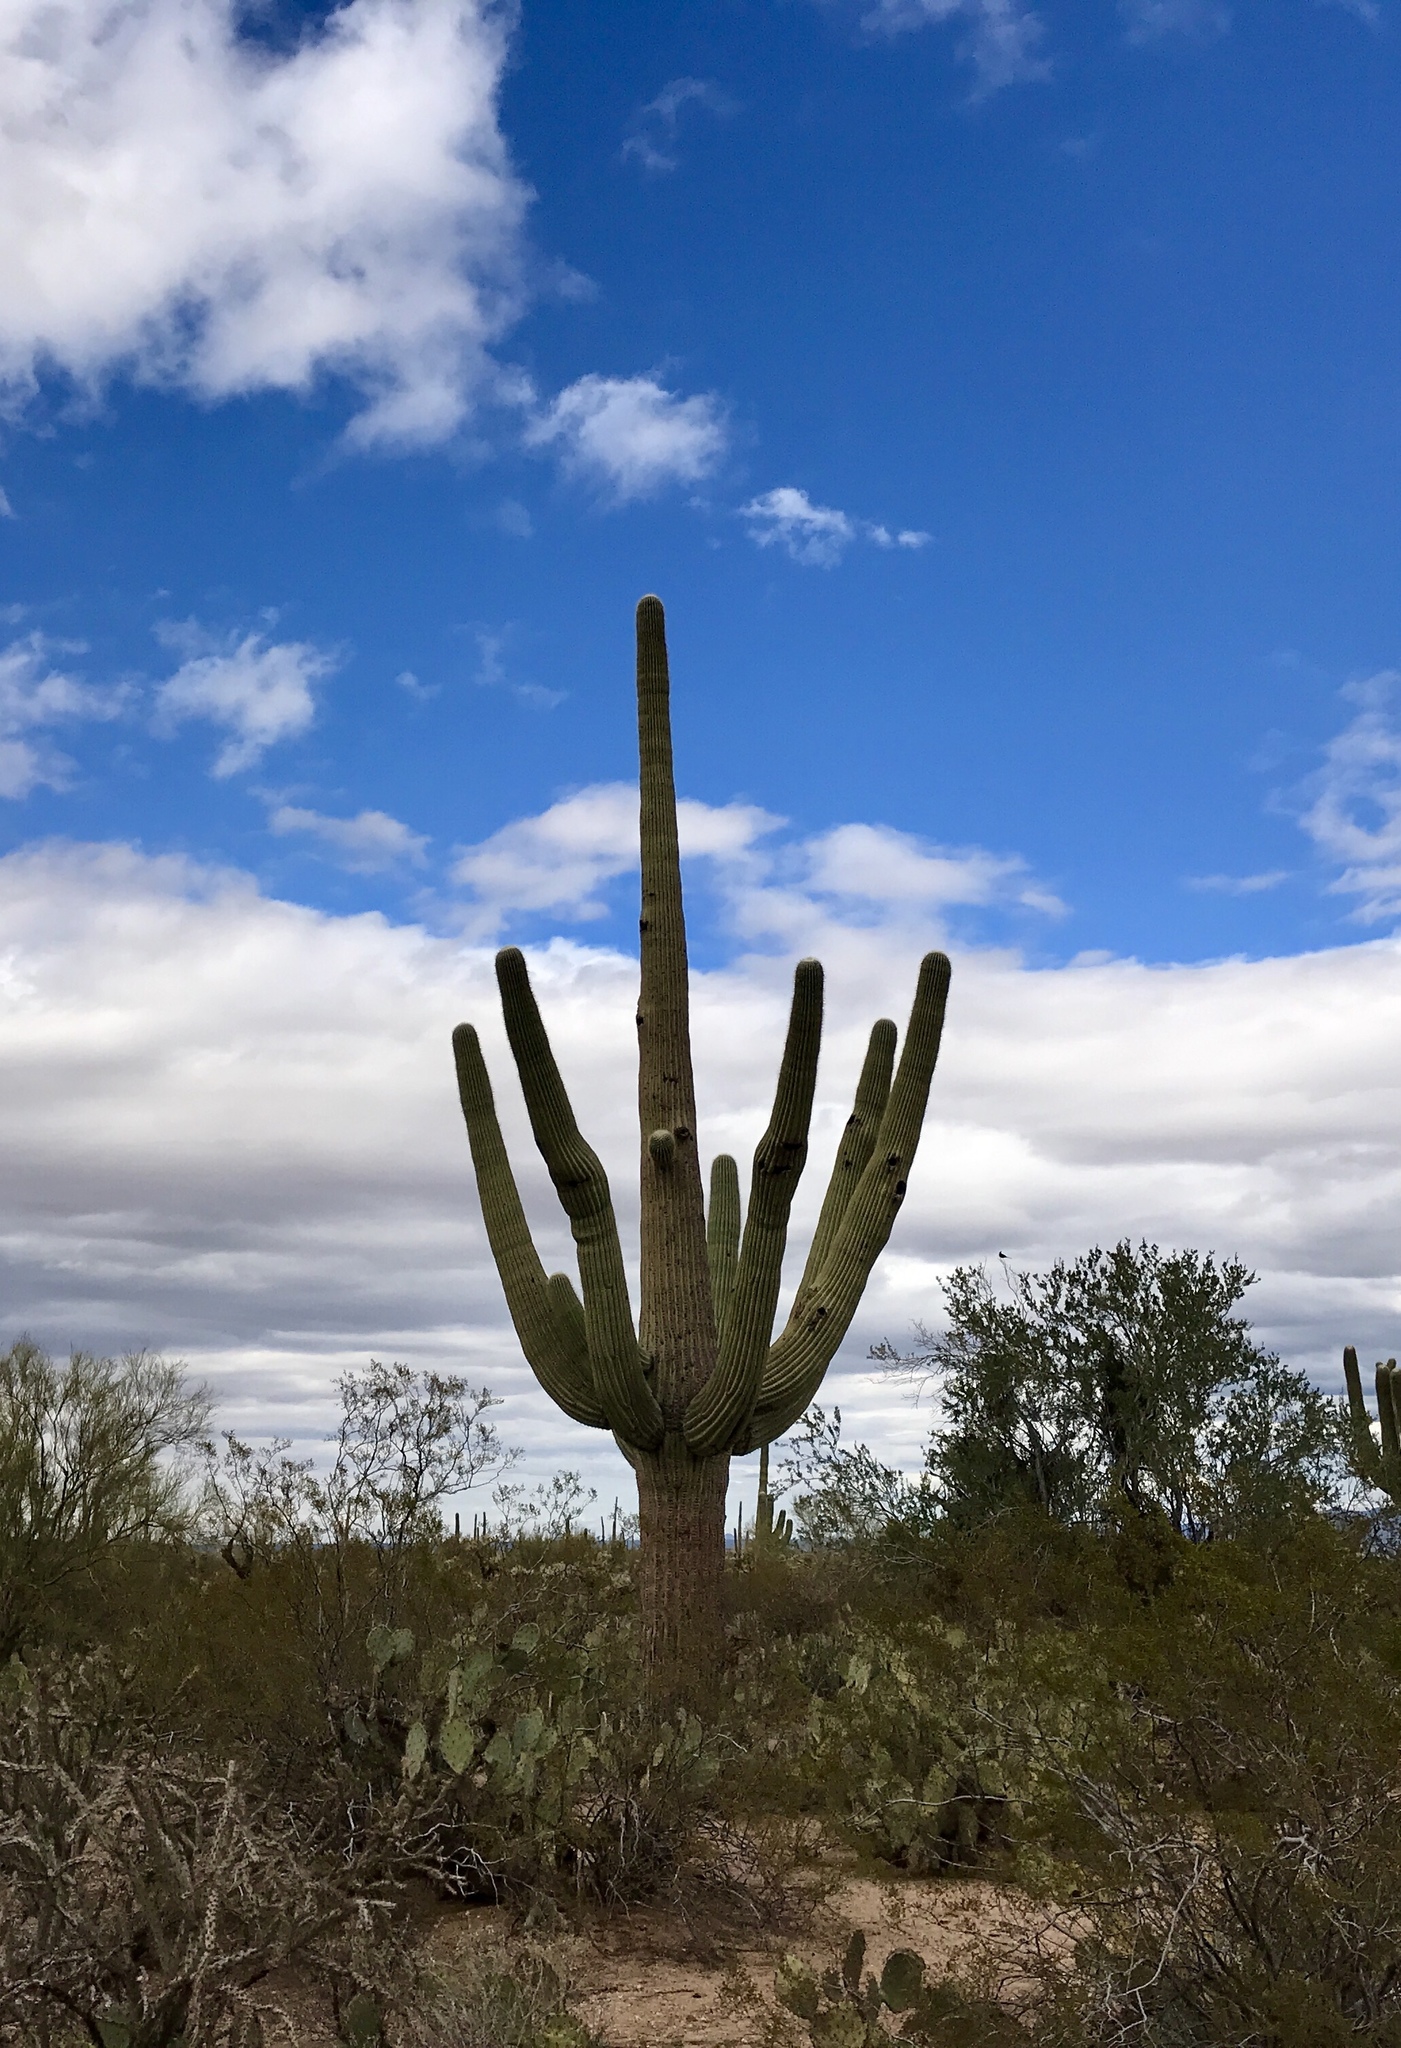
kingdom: Plantae
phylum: Tracheophyta
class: Magnoliopsida
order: Caryophyllales
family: Cactaceae
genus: Carnegiea
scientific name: Carnegiea gigantea
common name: Saguaro
